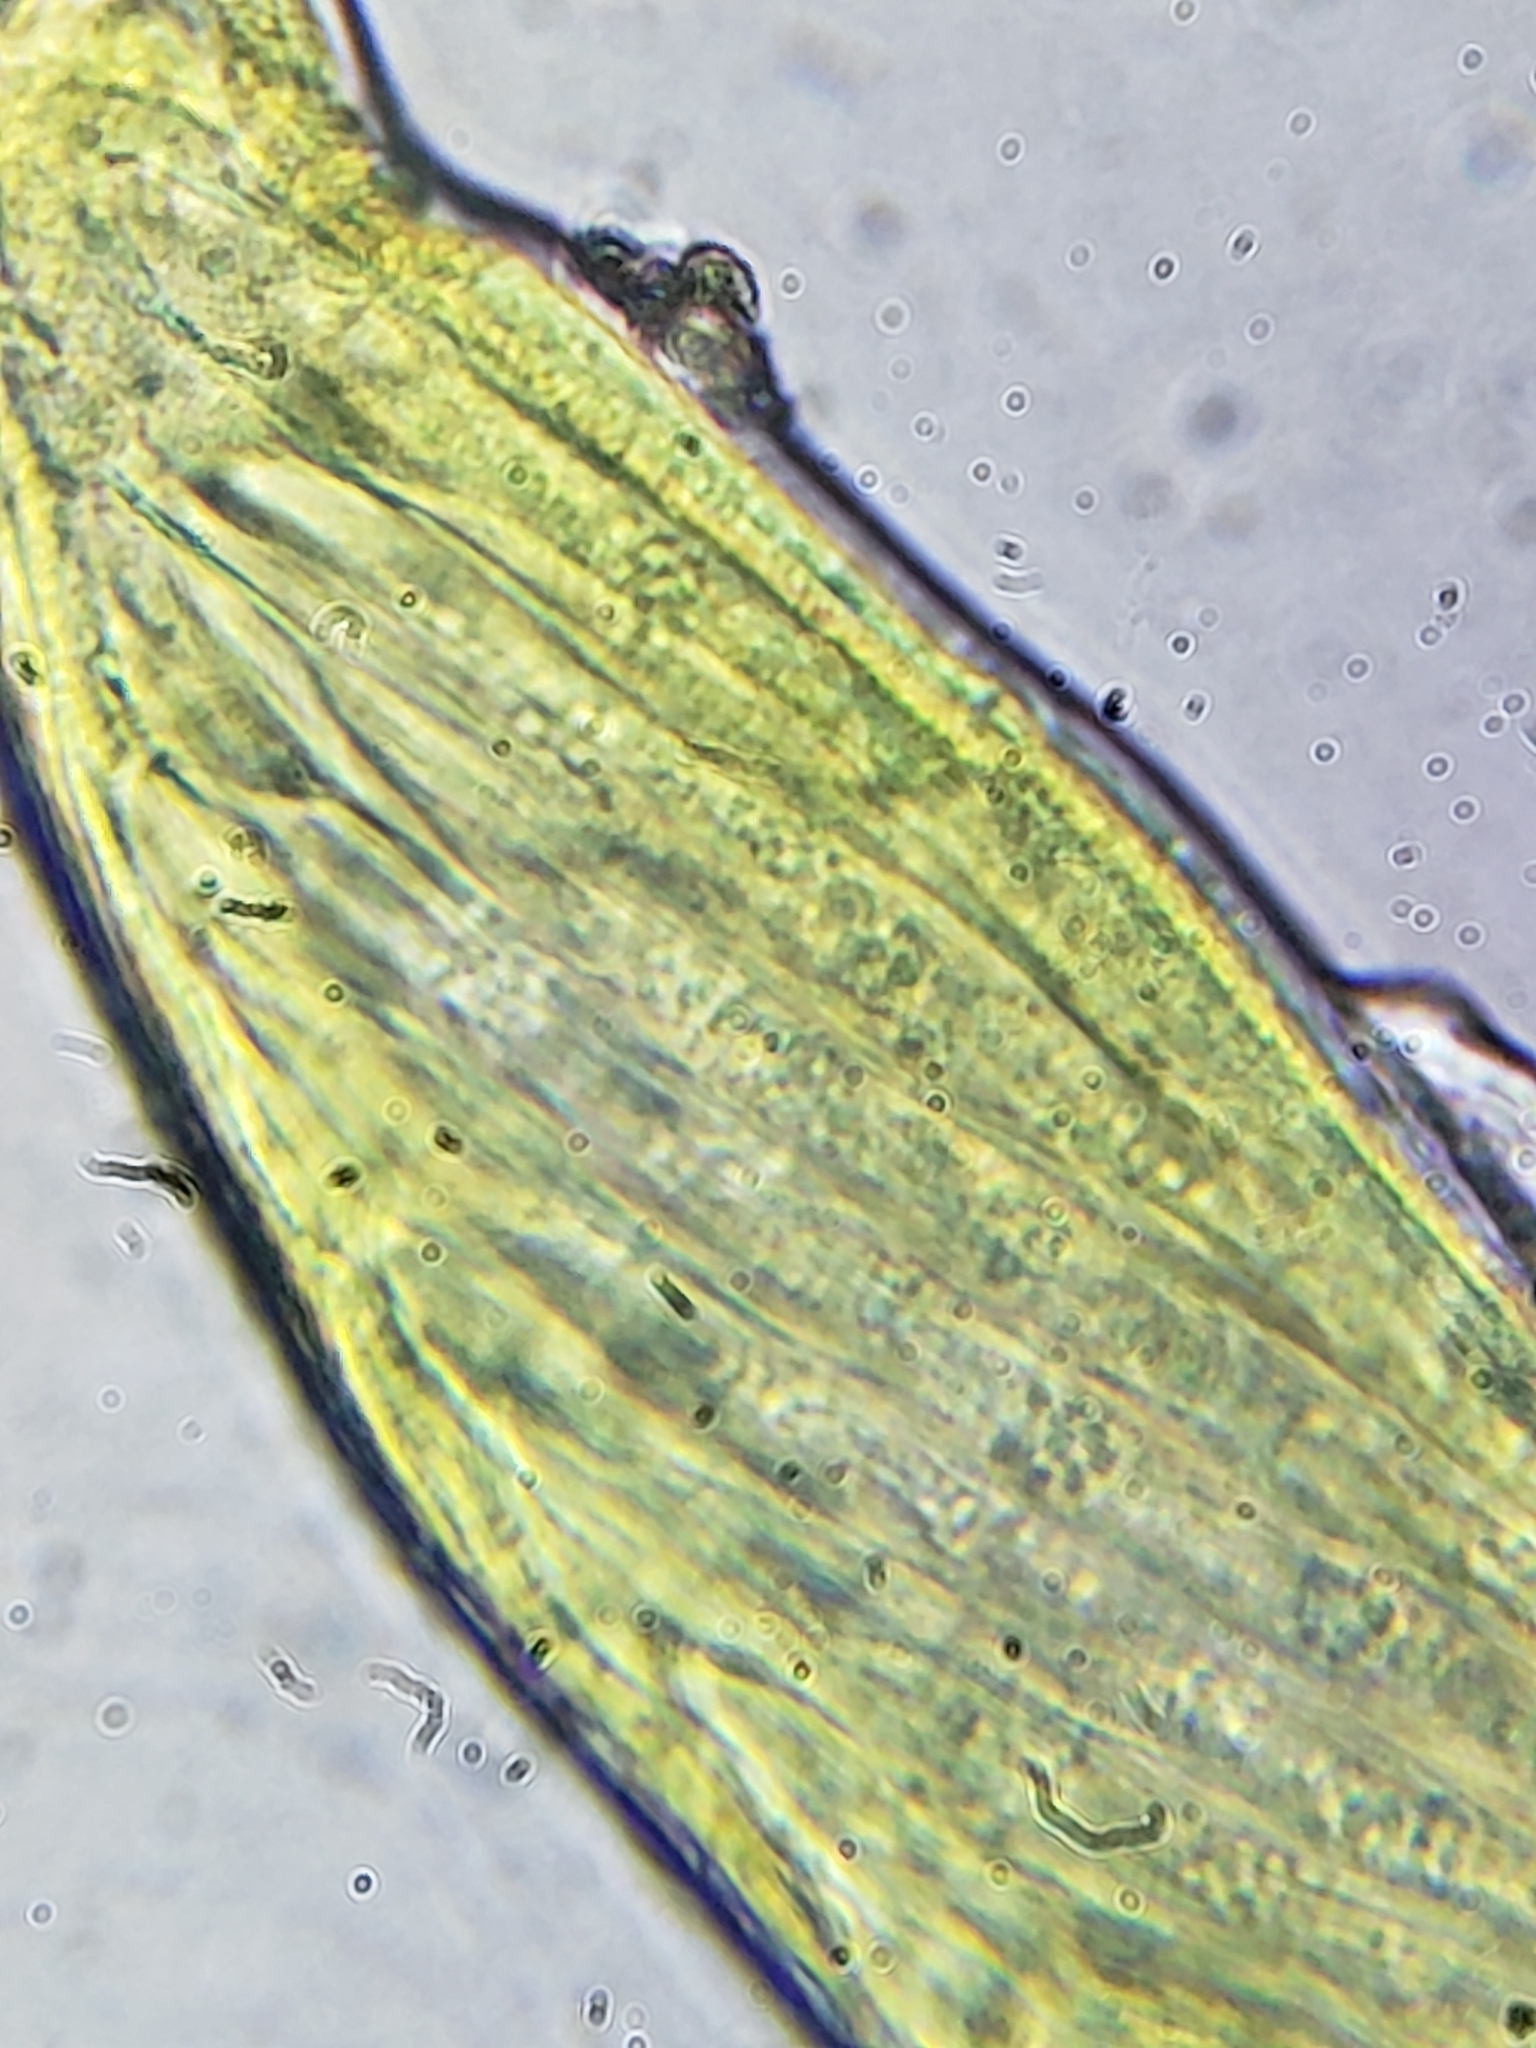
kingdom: Fungi
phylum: Ascomycota
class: Laboulbeniomycetes
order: Laboulbeniales
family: Laboulbeniaceae
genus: Hesperomyces
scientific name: Hesperomyces harmoniae
